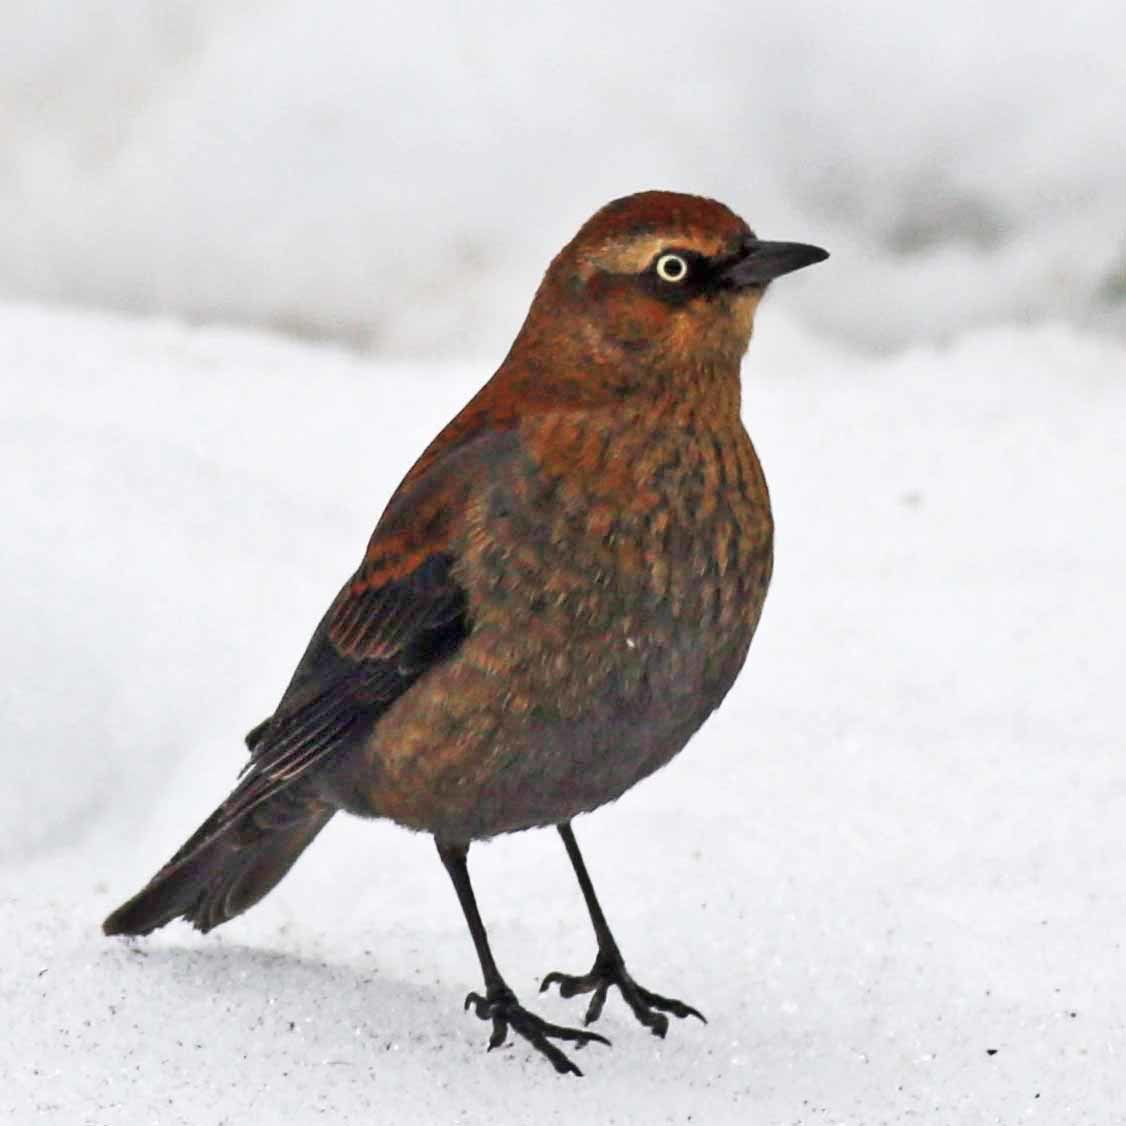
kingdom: Animalia
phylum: Chordata
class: Aves
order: Passeriformes
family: Icteridae
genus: Euphagus
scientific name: Euphagus carolinus
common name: Rusty blackbird
